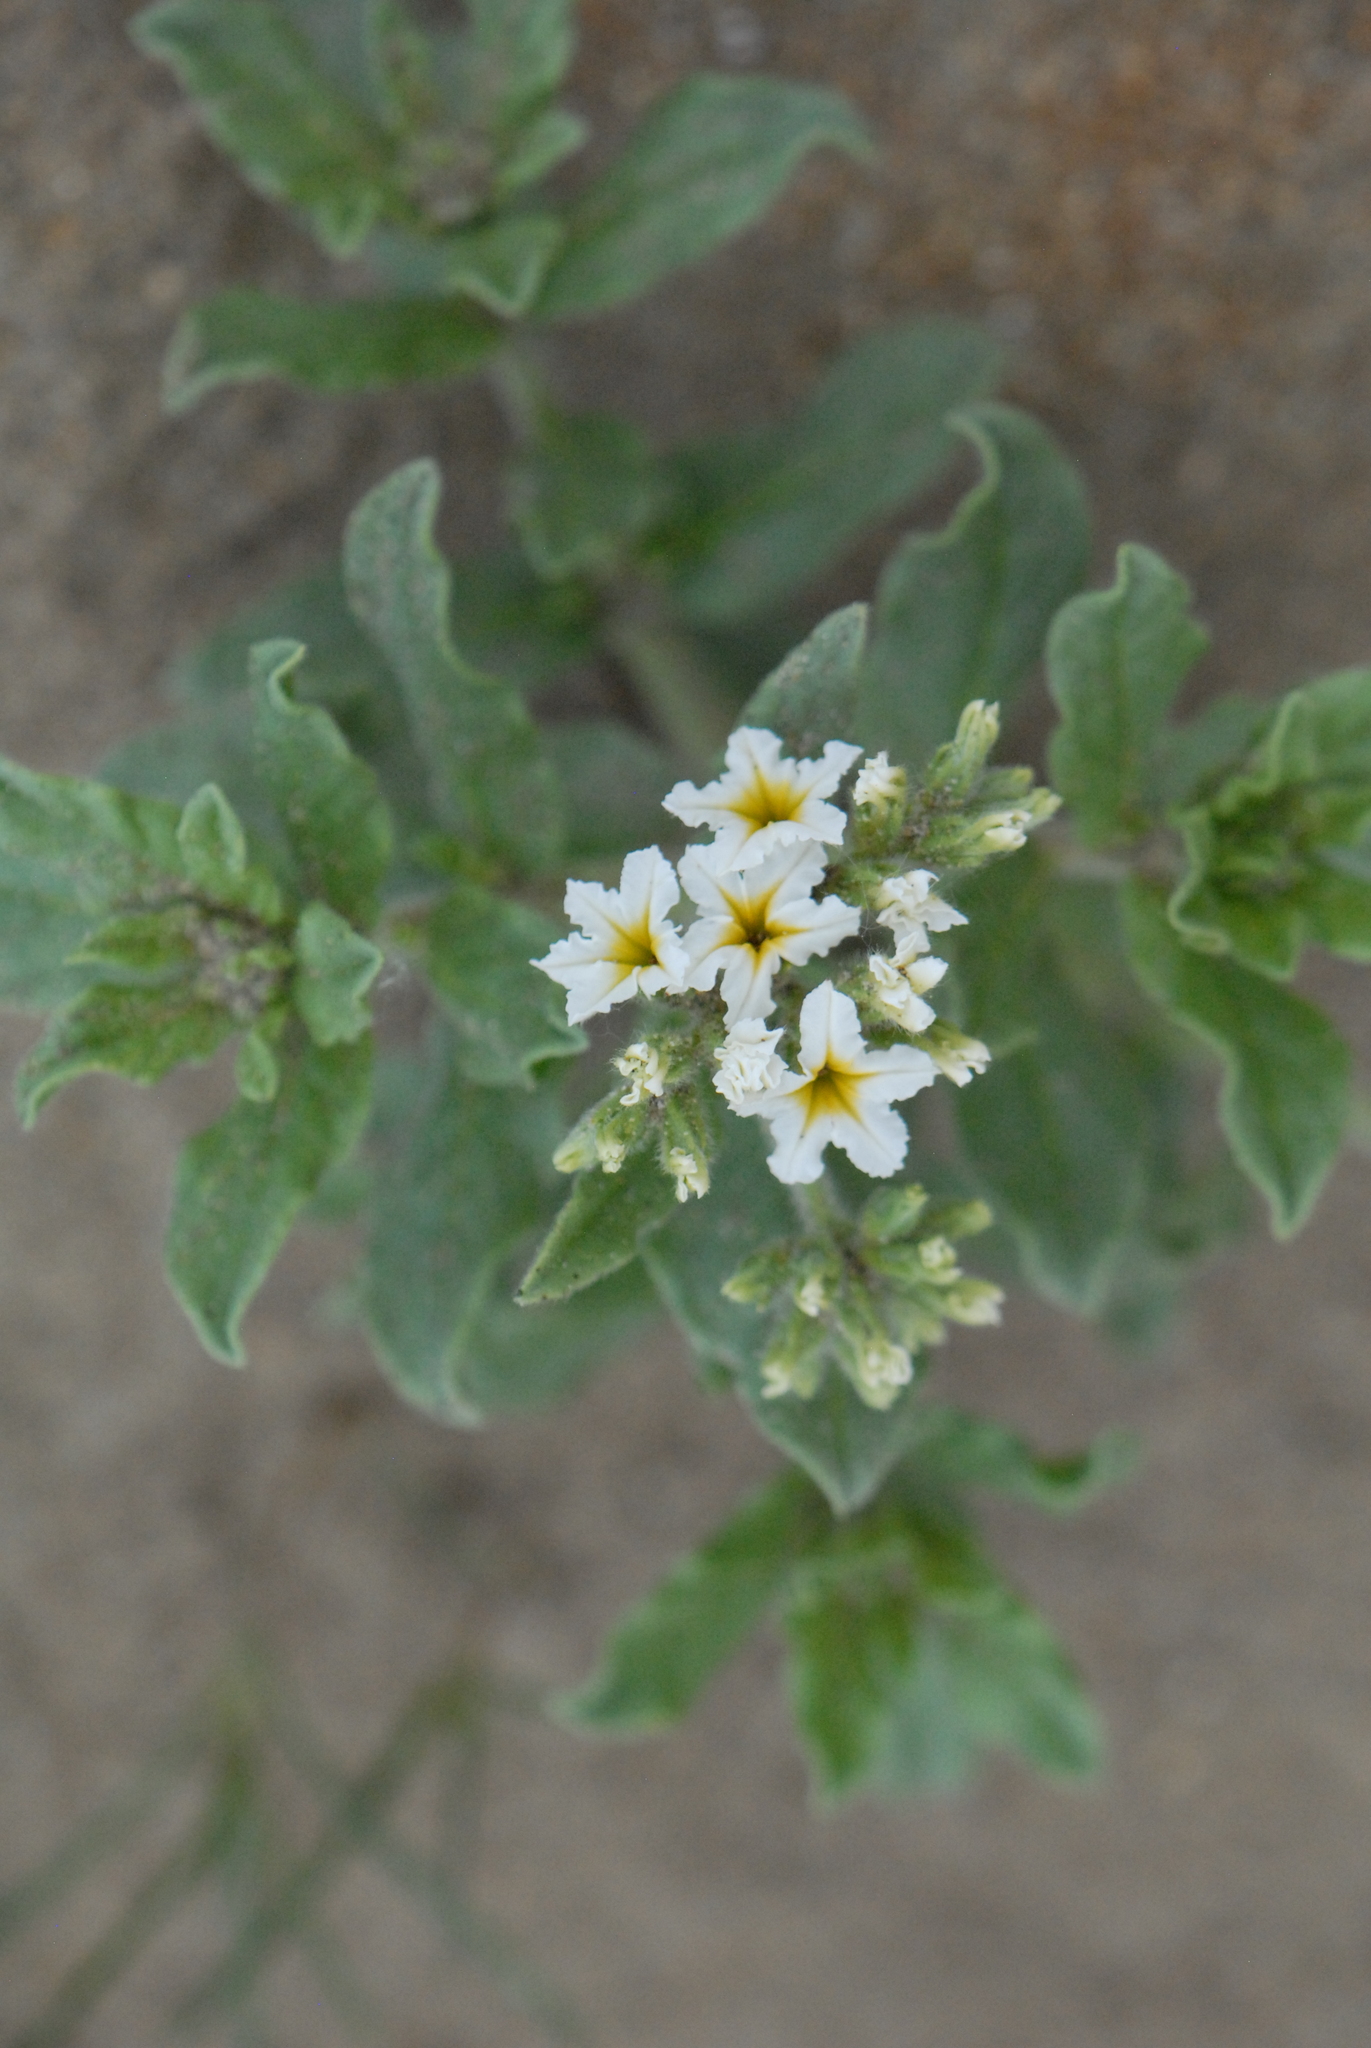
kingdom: Plantae
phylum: Tracheophyta
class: Magnoliopsida
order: Boraginales
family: Heliotropiaceae
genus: Tournefortia
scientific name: Tournefortia sibirica
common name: Siberian sea rosemary
